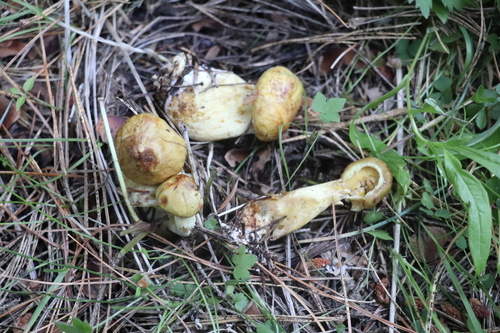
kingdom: Fungi
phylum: Basidiomycota
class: Agaricomycetes
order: Boletales
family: Suillaceae
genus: Suillus
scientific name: Suillus americanus
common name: Chicken fat mushroom
